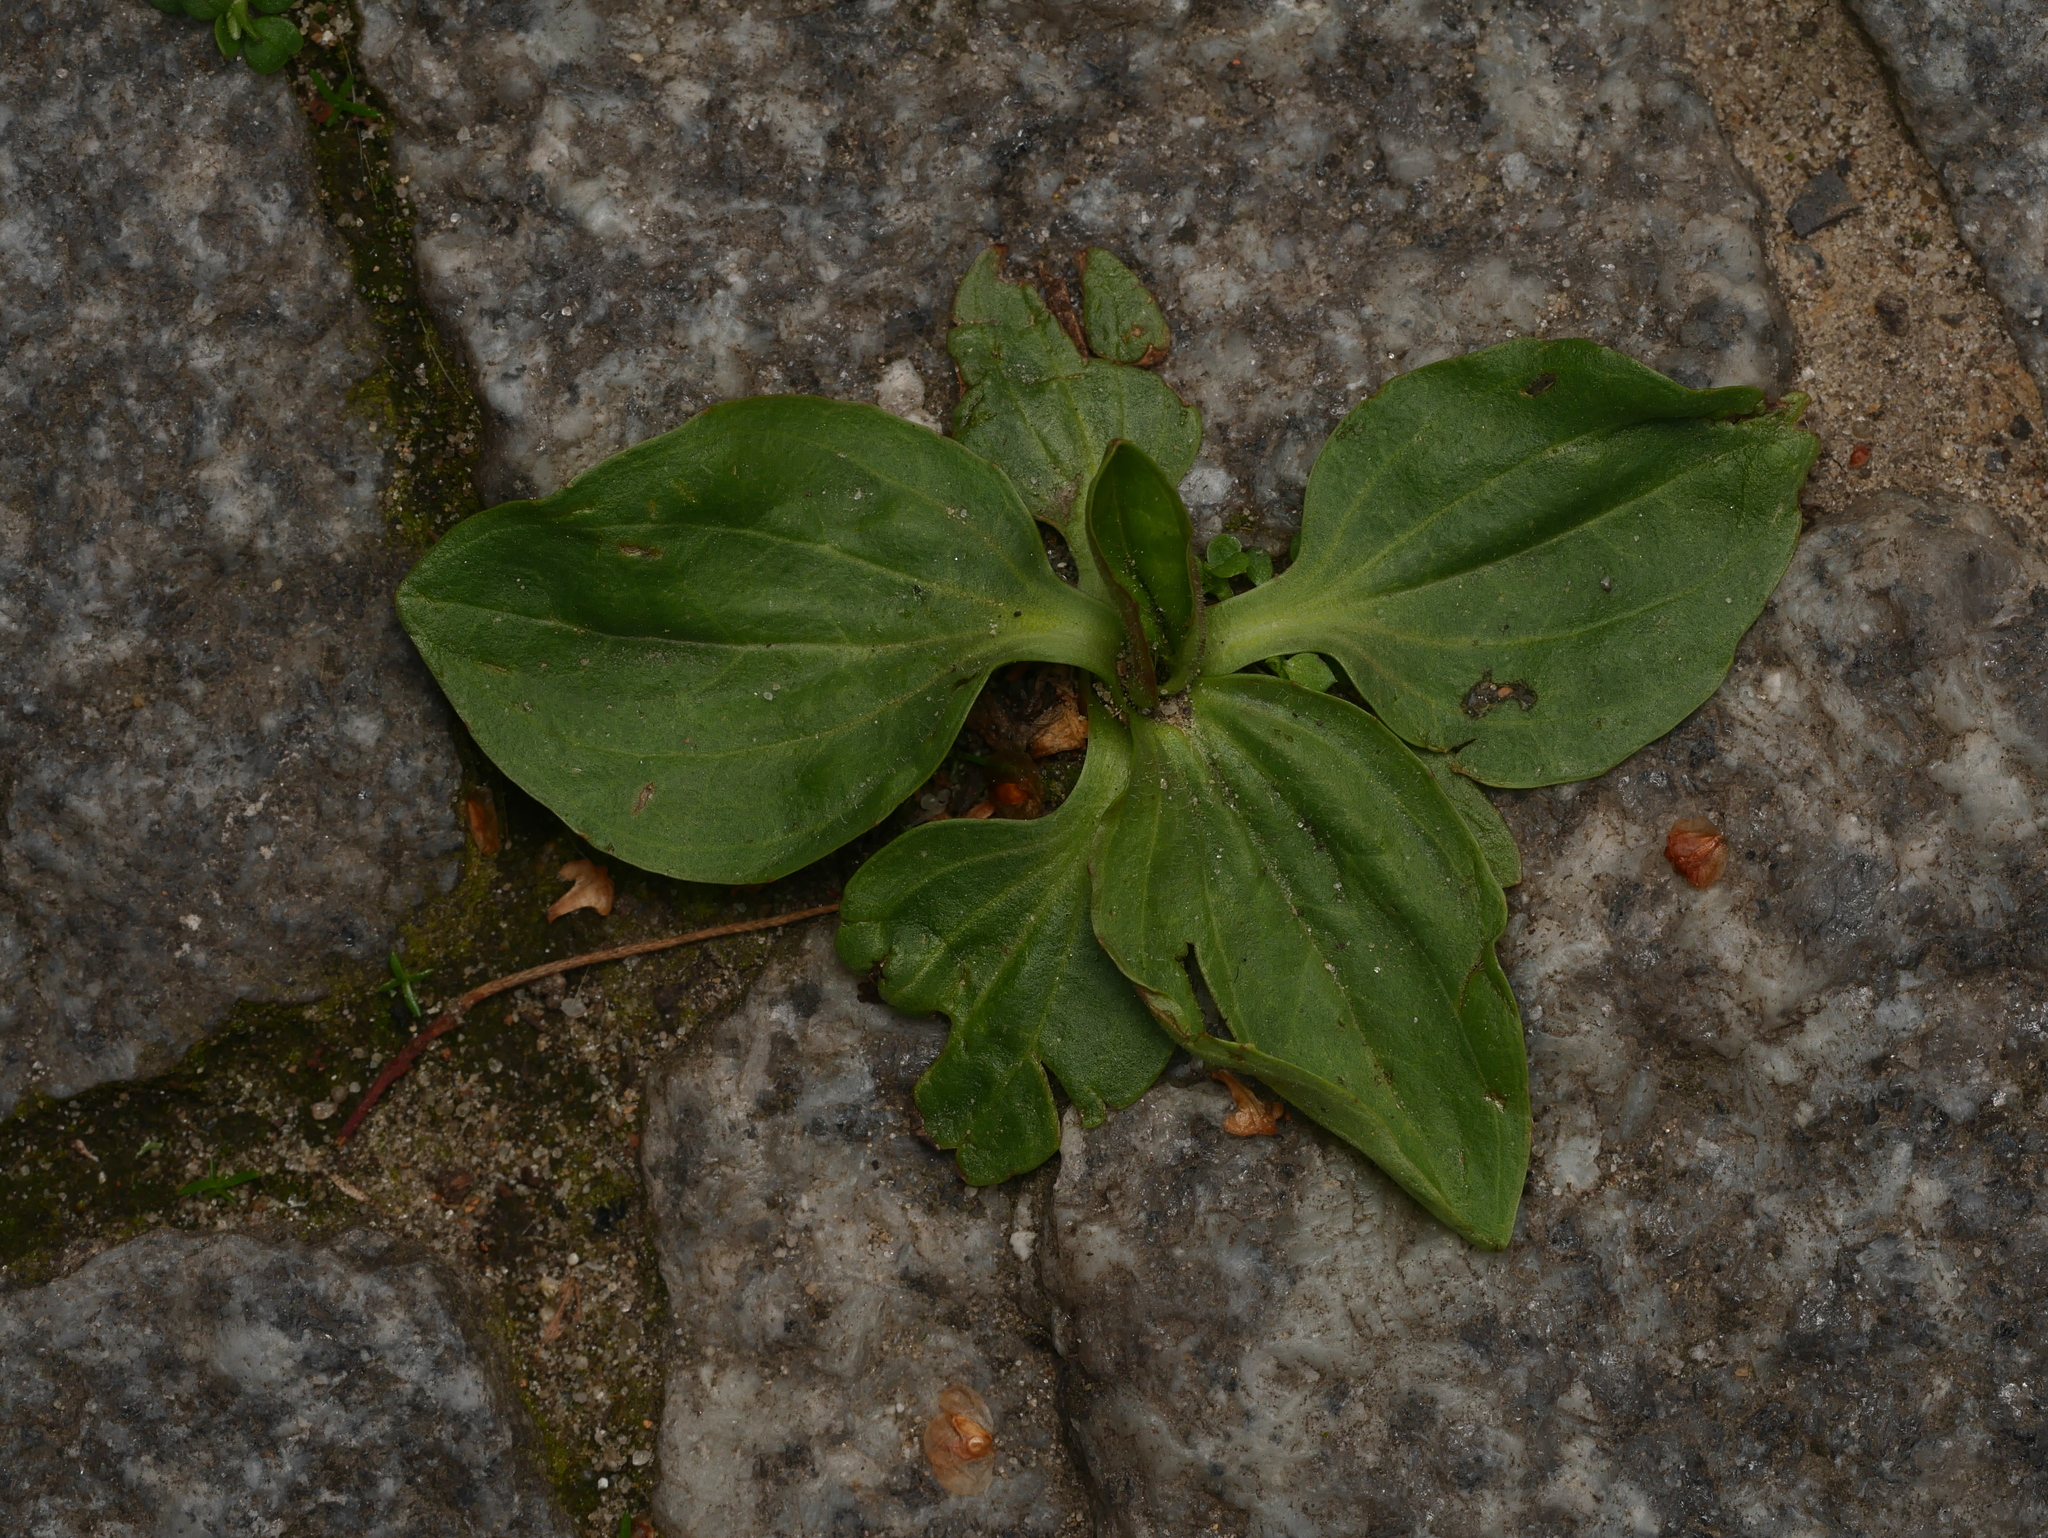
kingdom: Plantae
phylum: Tracheophyta
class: Magnoliopsida
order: Lamiales
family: Plantaginaceae
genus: Plantago
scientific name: Plantago major
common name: Common plantain
